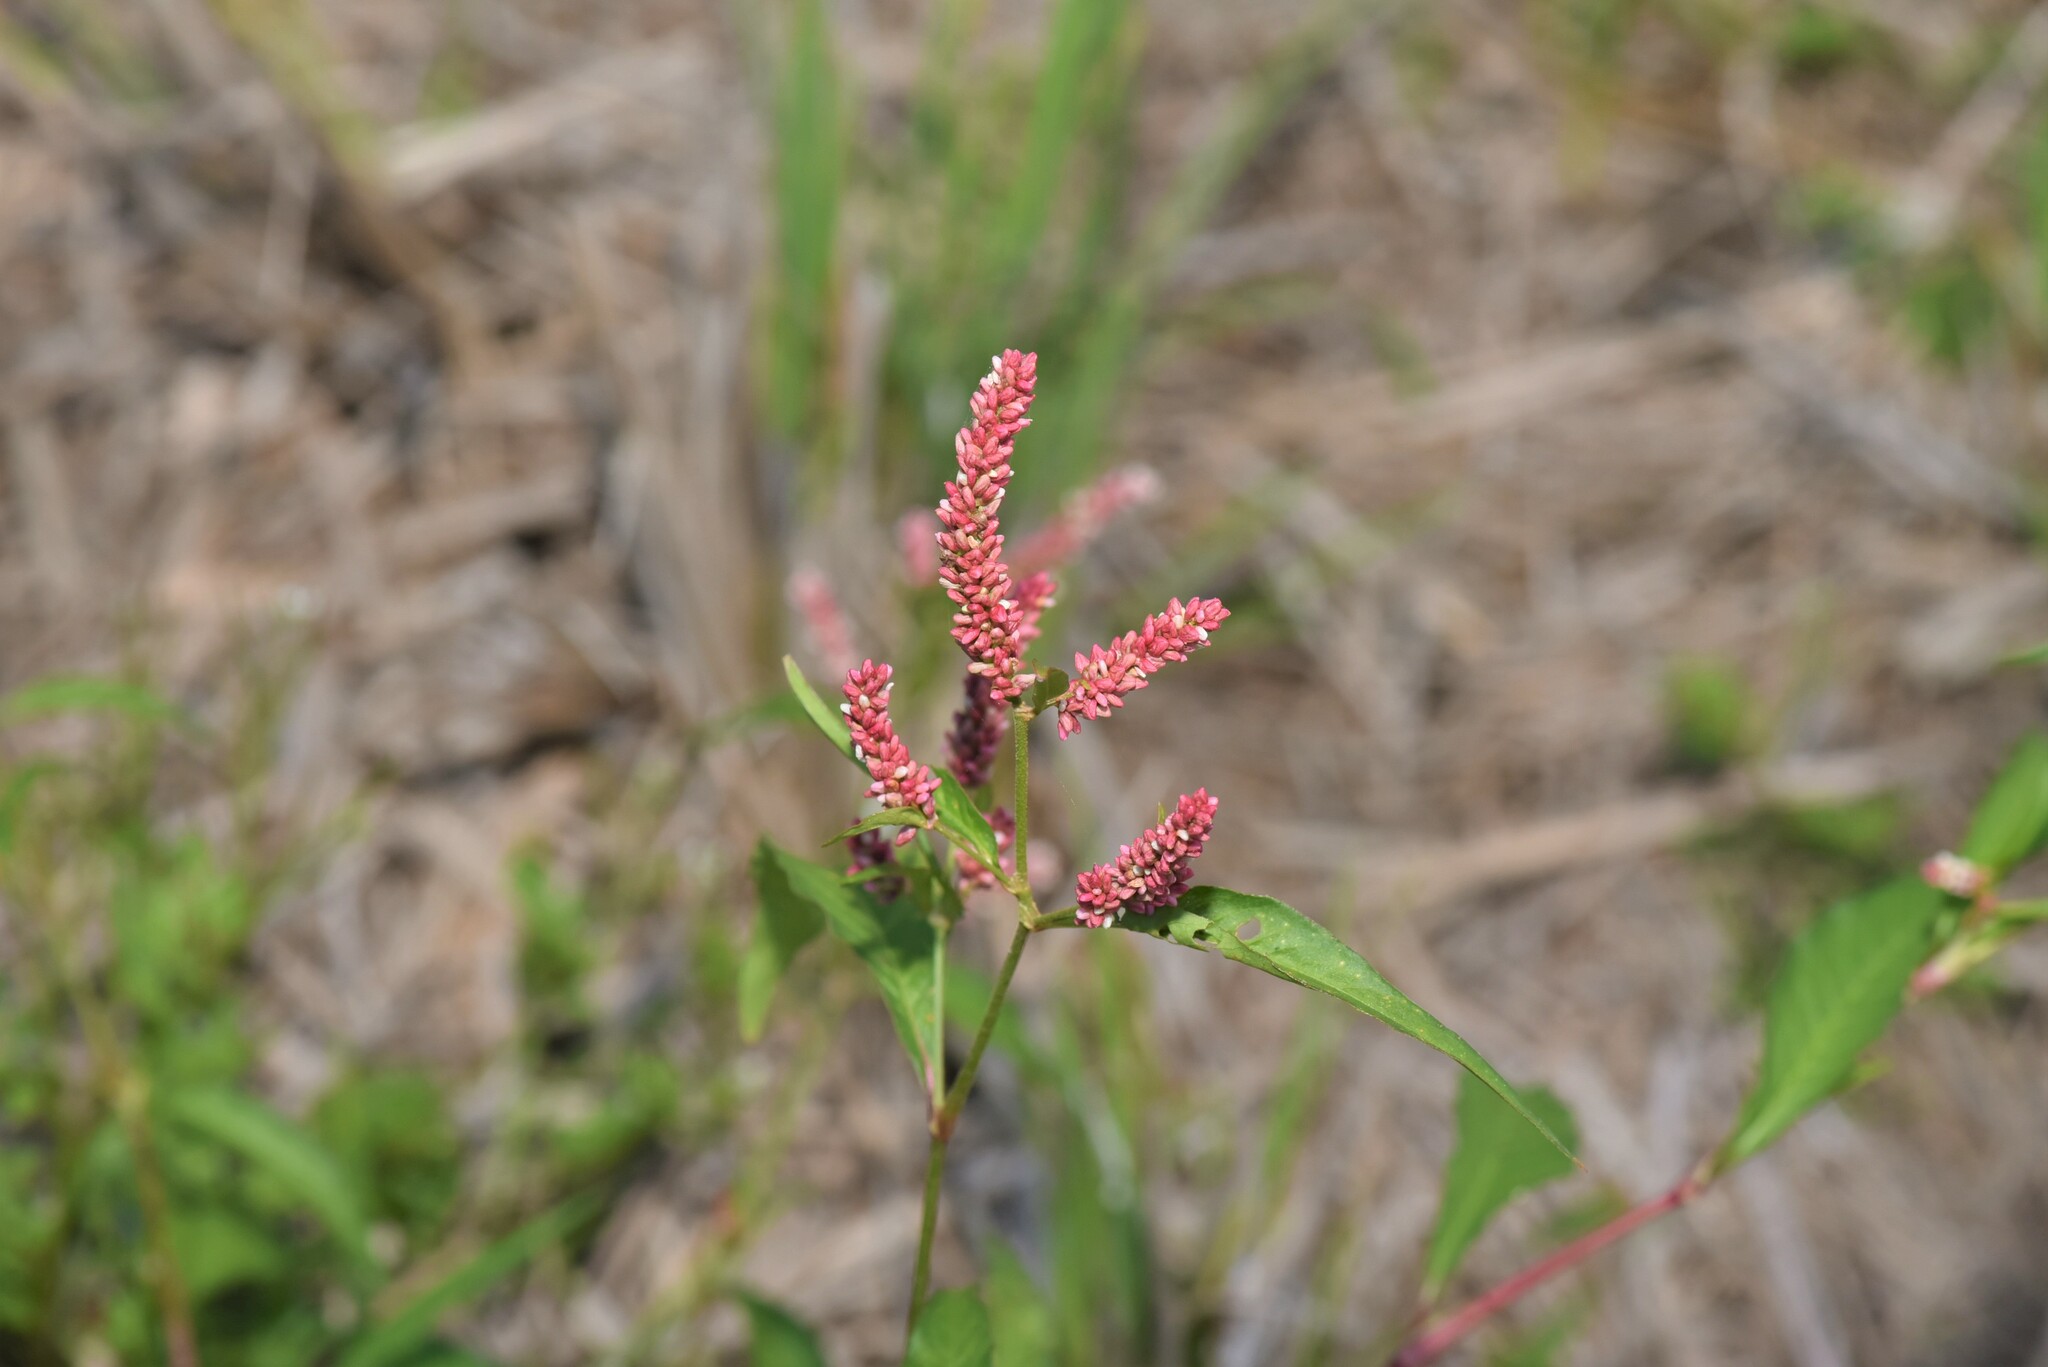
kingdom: Plantae
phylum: Tracheophyta
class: Magnoliopsida
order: Caryophyllales
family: Polygonaceae
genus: Persicaria
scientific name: Persicaria lapathifolia
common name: Curlytop knotweed
